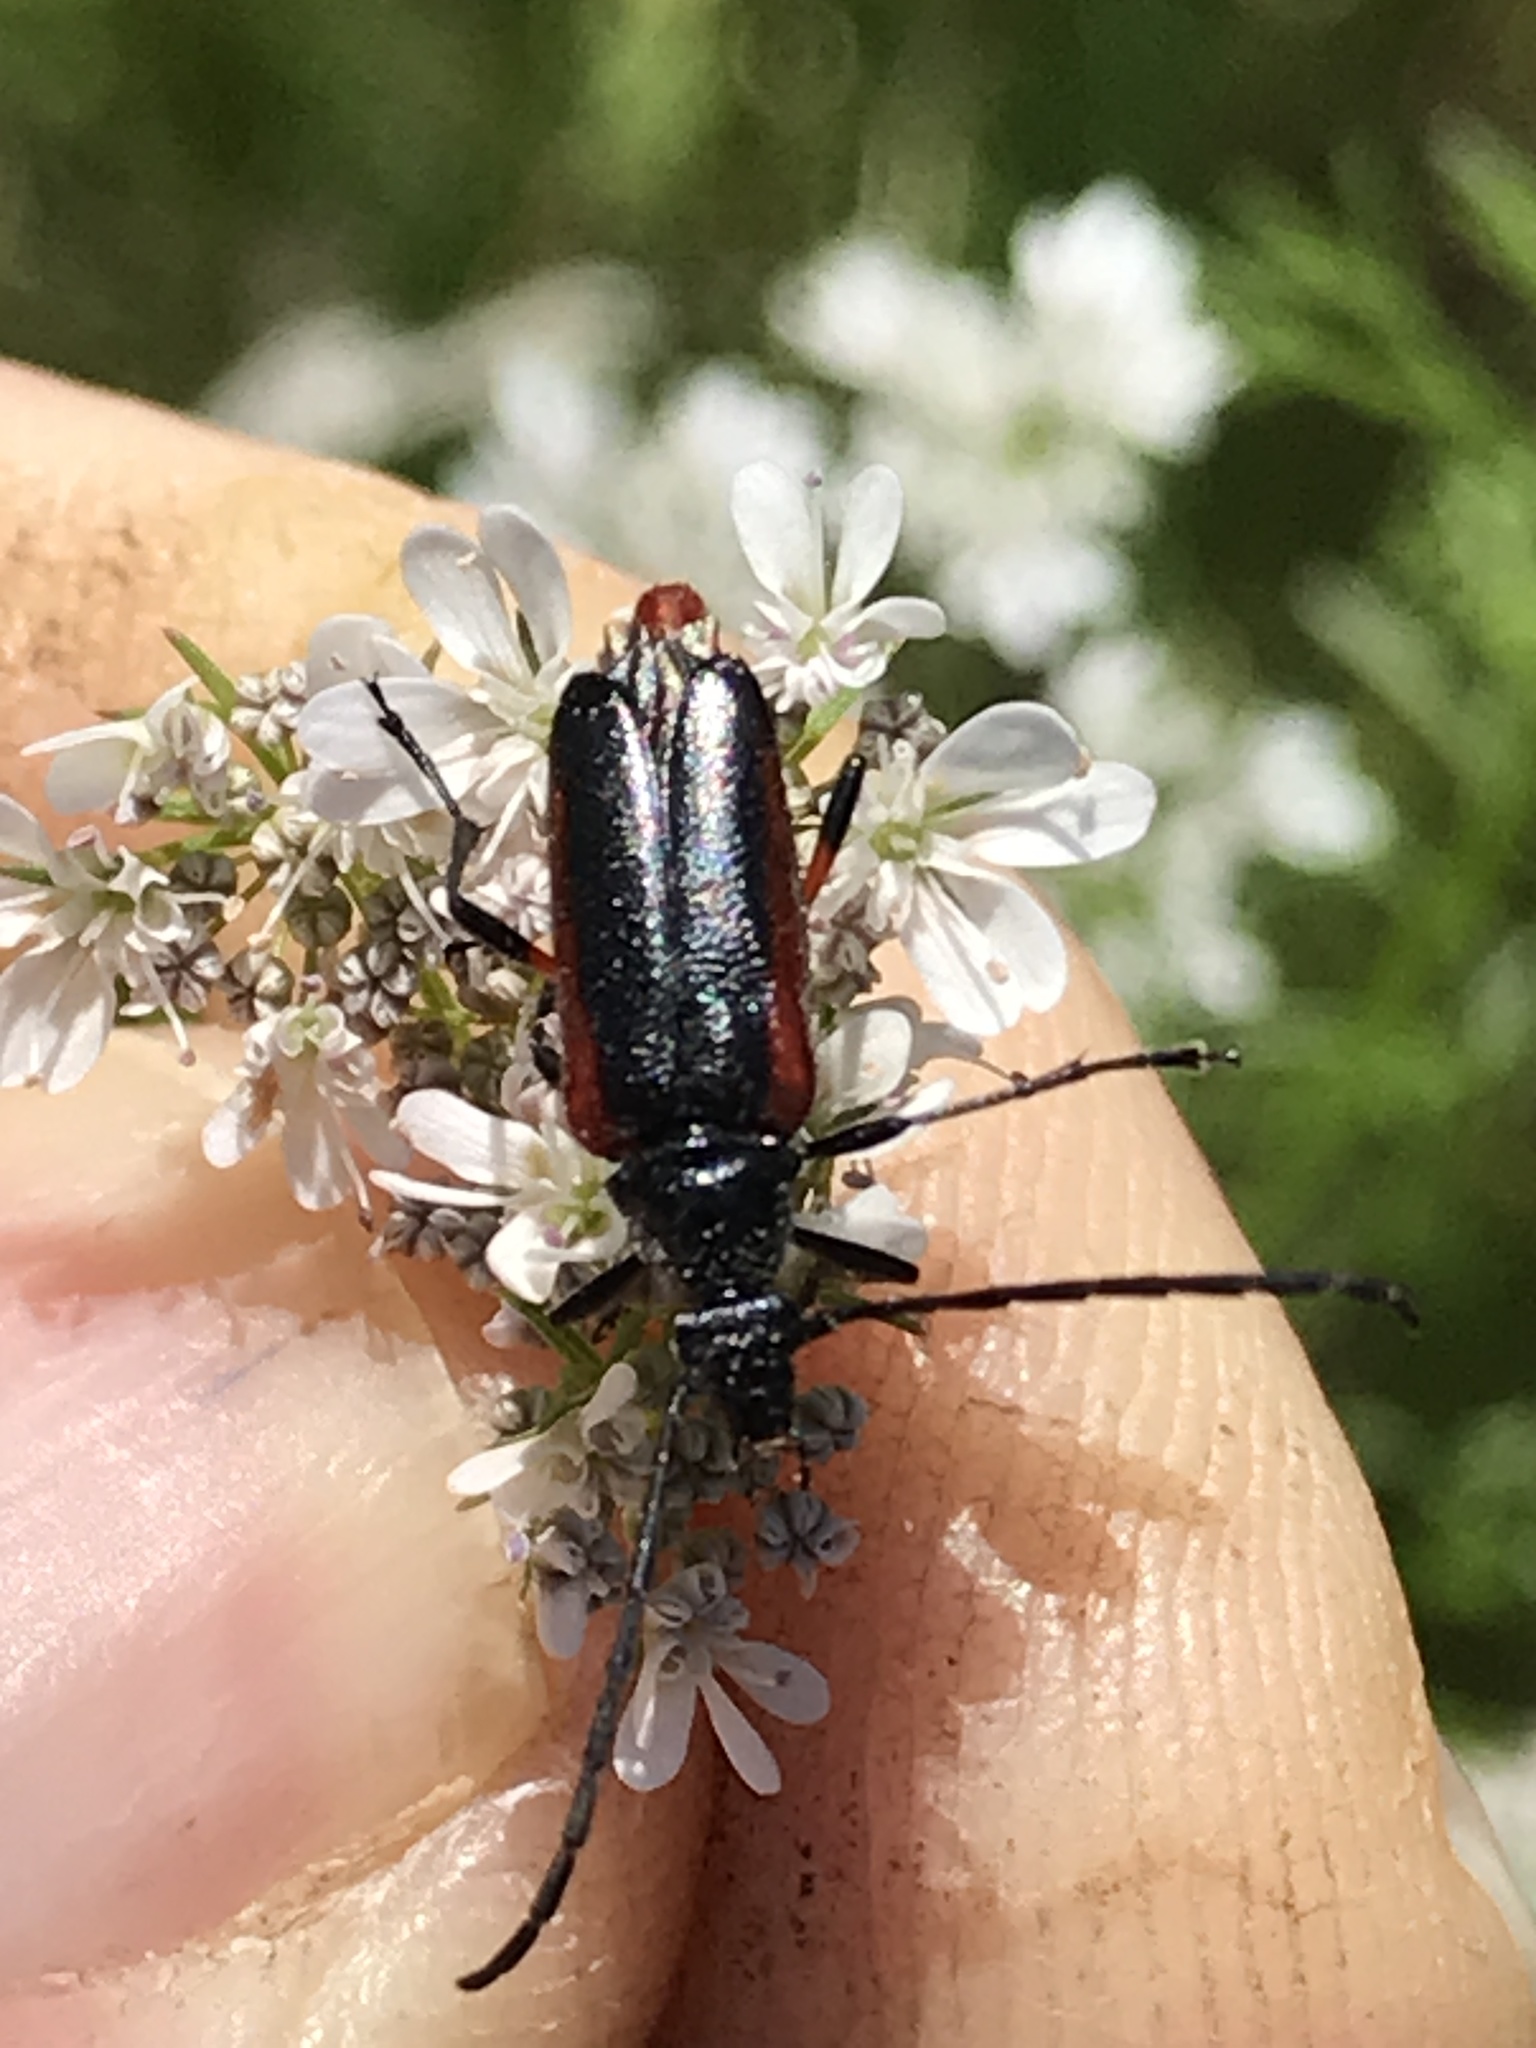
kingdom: Animalia
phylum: Arthropoda
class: Insecta
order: Coleoptera
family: Cerambycidae
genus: Pseudostrangalia
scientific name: Pseudostrangalia cruentata
